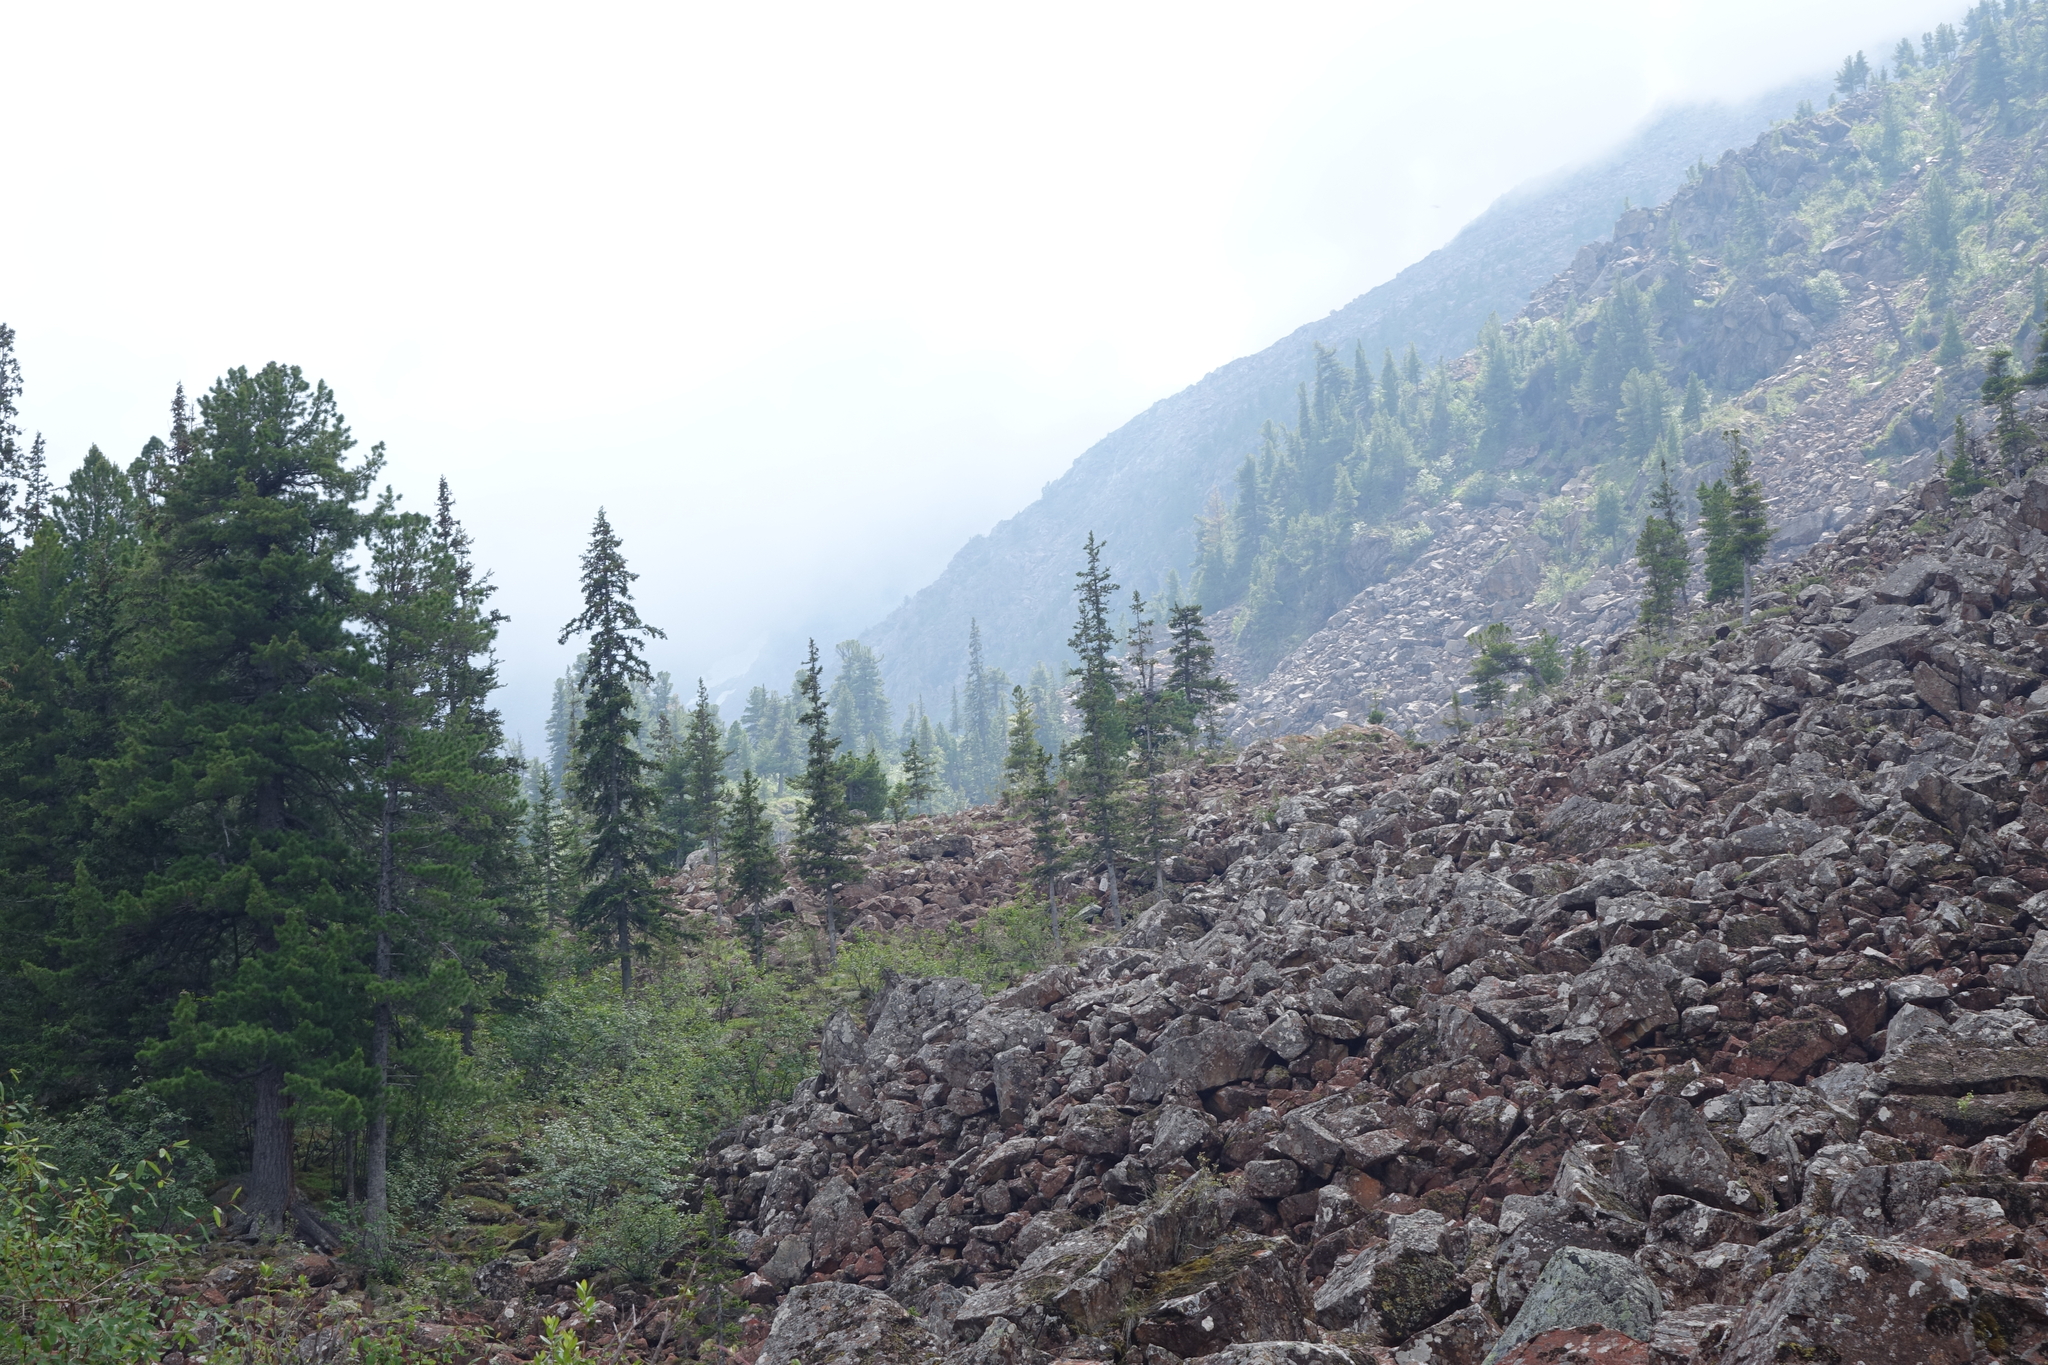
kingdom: Plantae
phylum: Tracheophyta
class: Pinopsida
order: Pinales
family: Pinaceae
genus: Pinus
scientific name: Pinus sibirica
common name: Siberian pine
